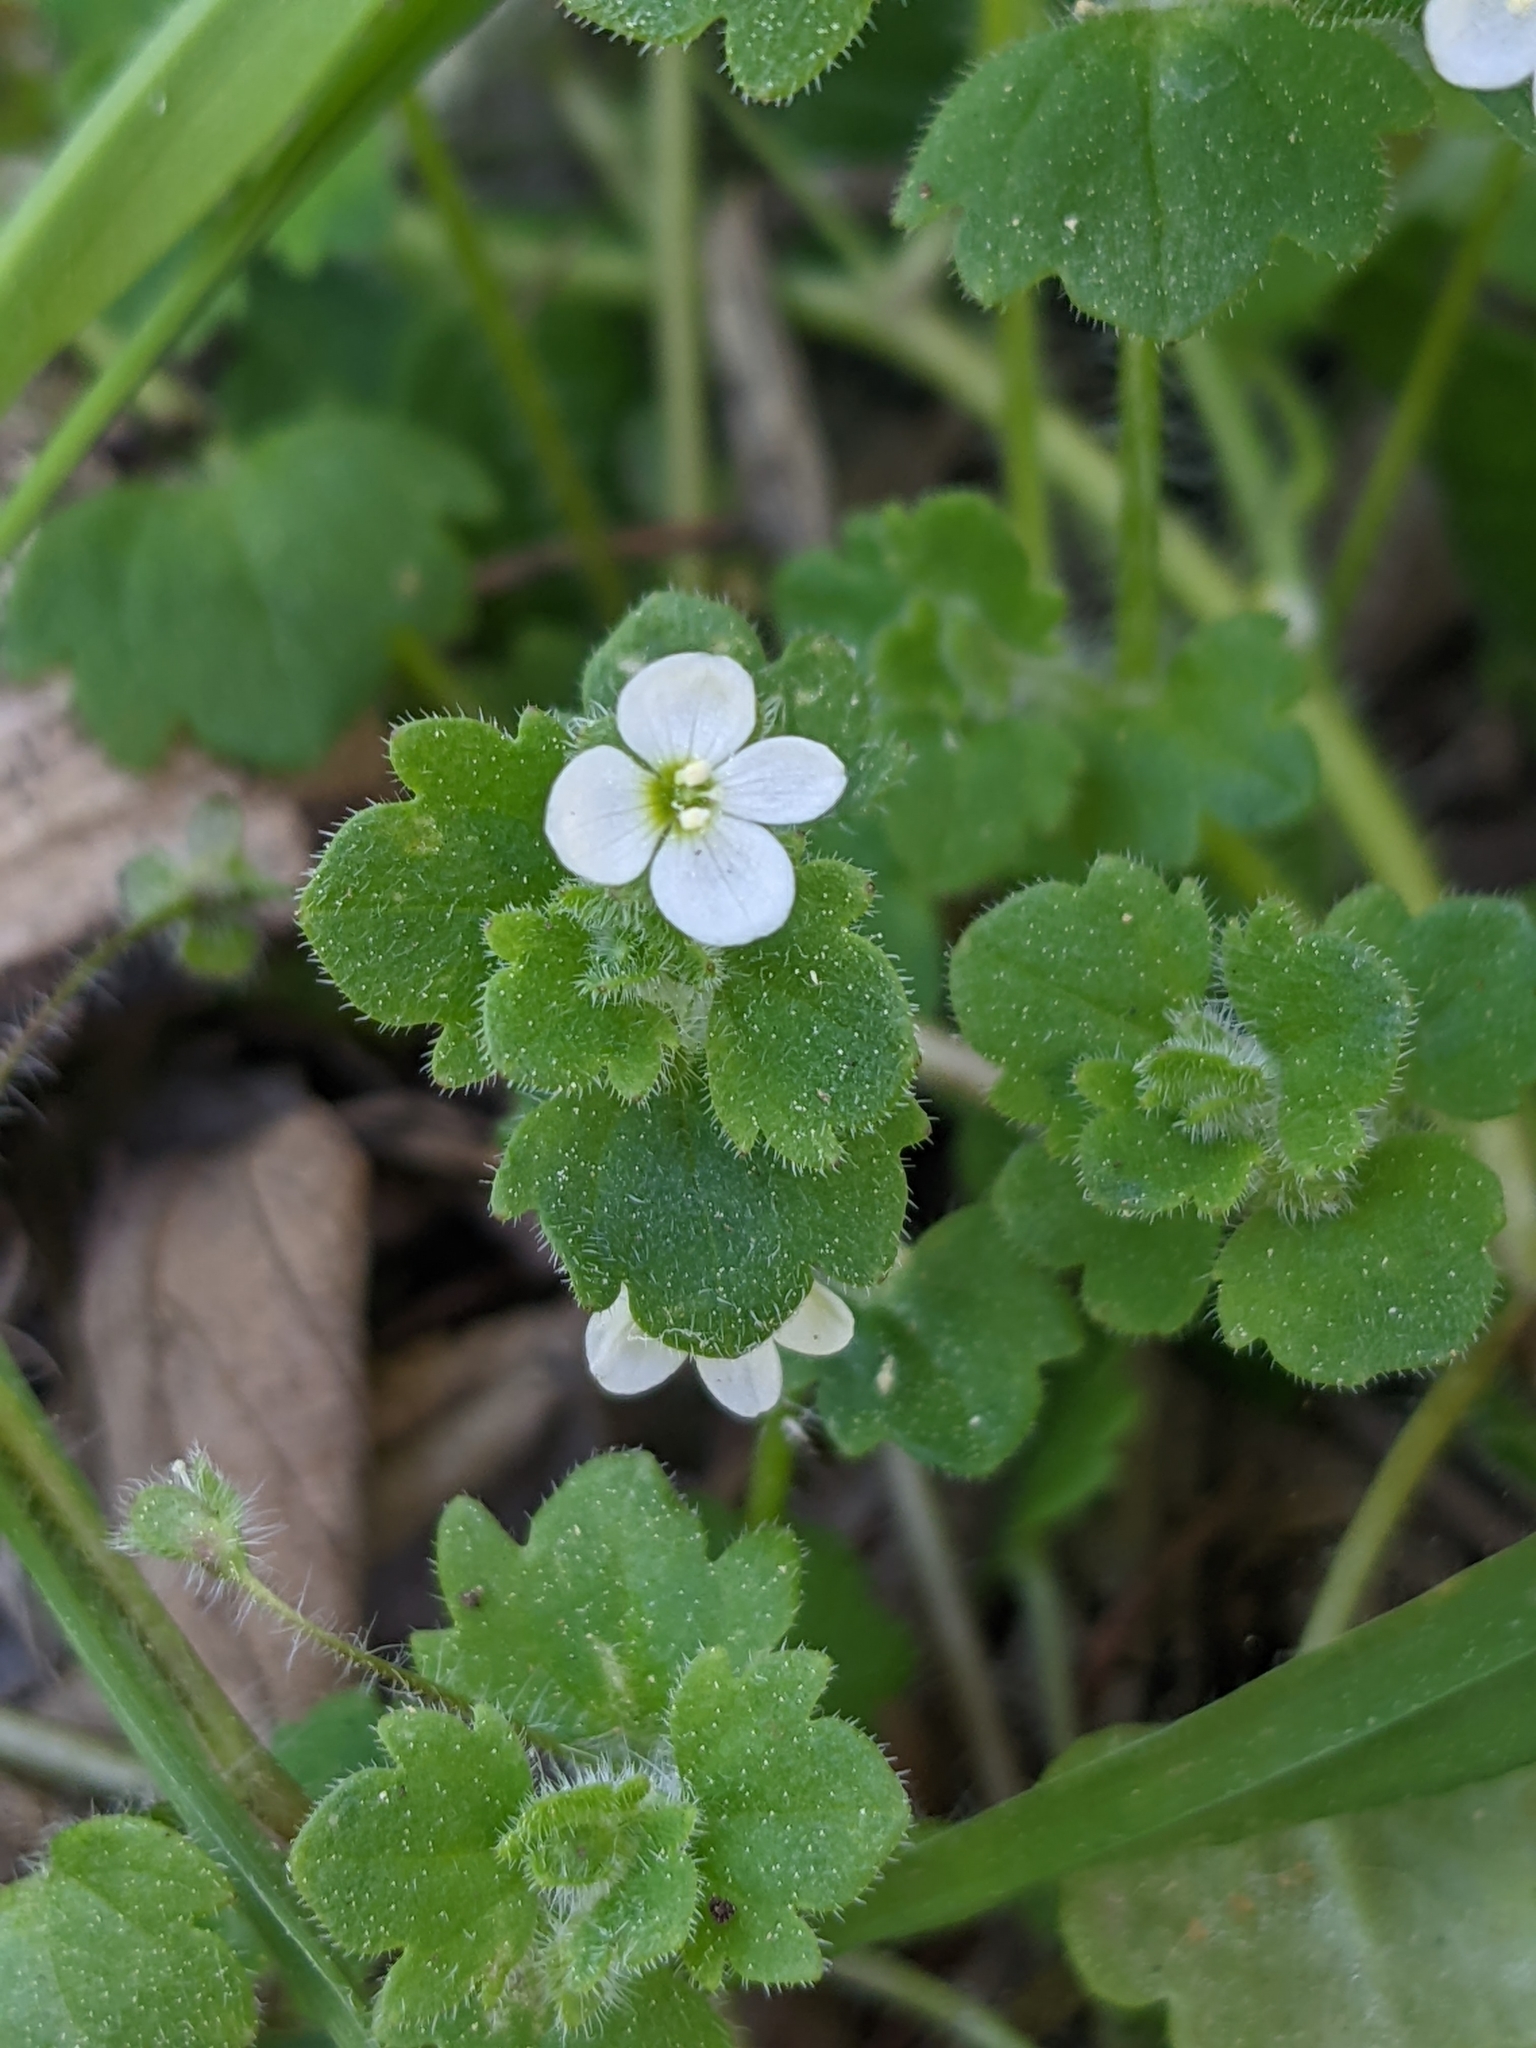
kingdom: Plantae
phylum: Tracheophyta
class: Magnoliopsida
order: Lamiales
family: Plantaginaceae
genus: Veronica
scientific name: Veronica cymbalaria
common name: Pale speedwell
